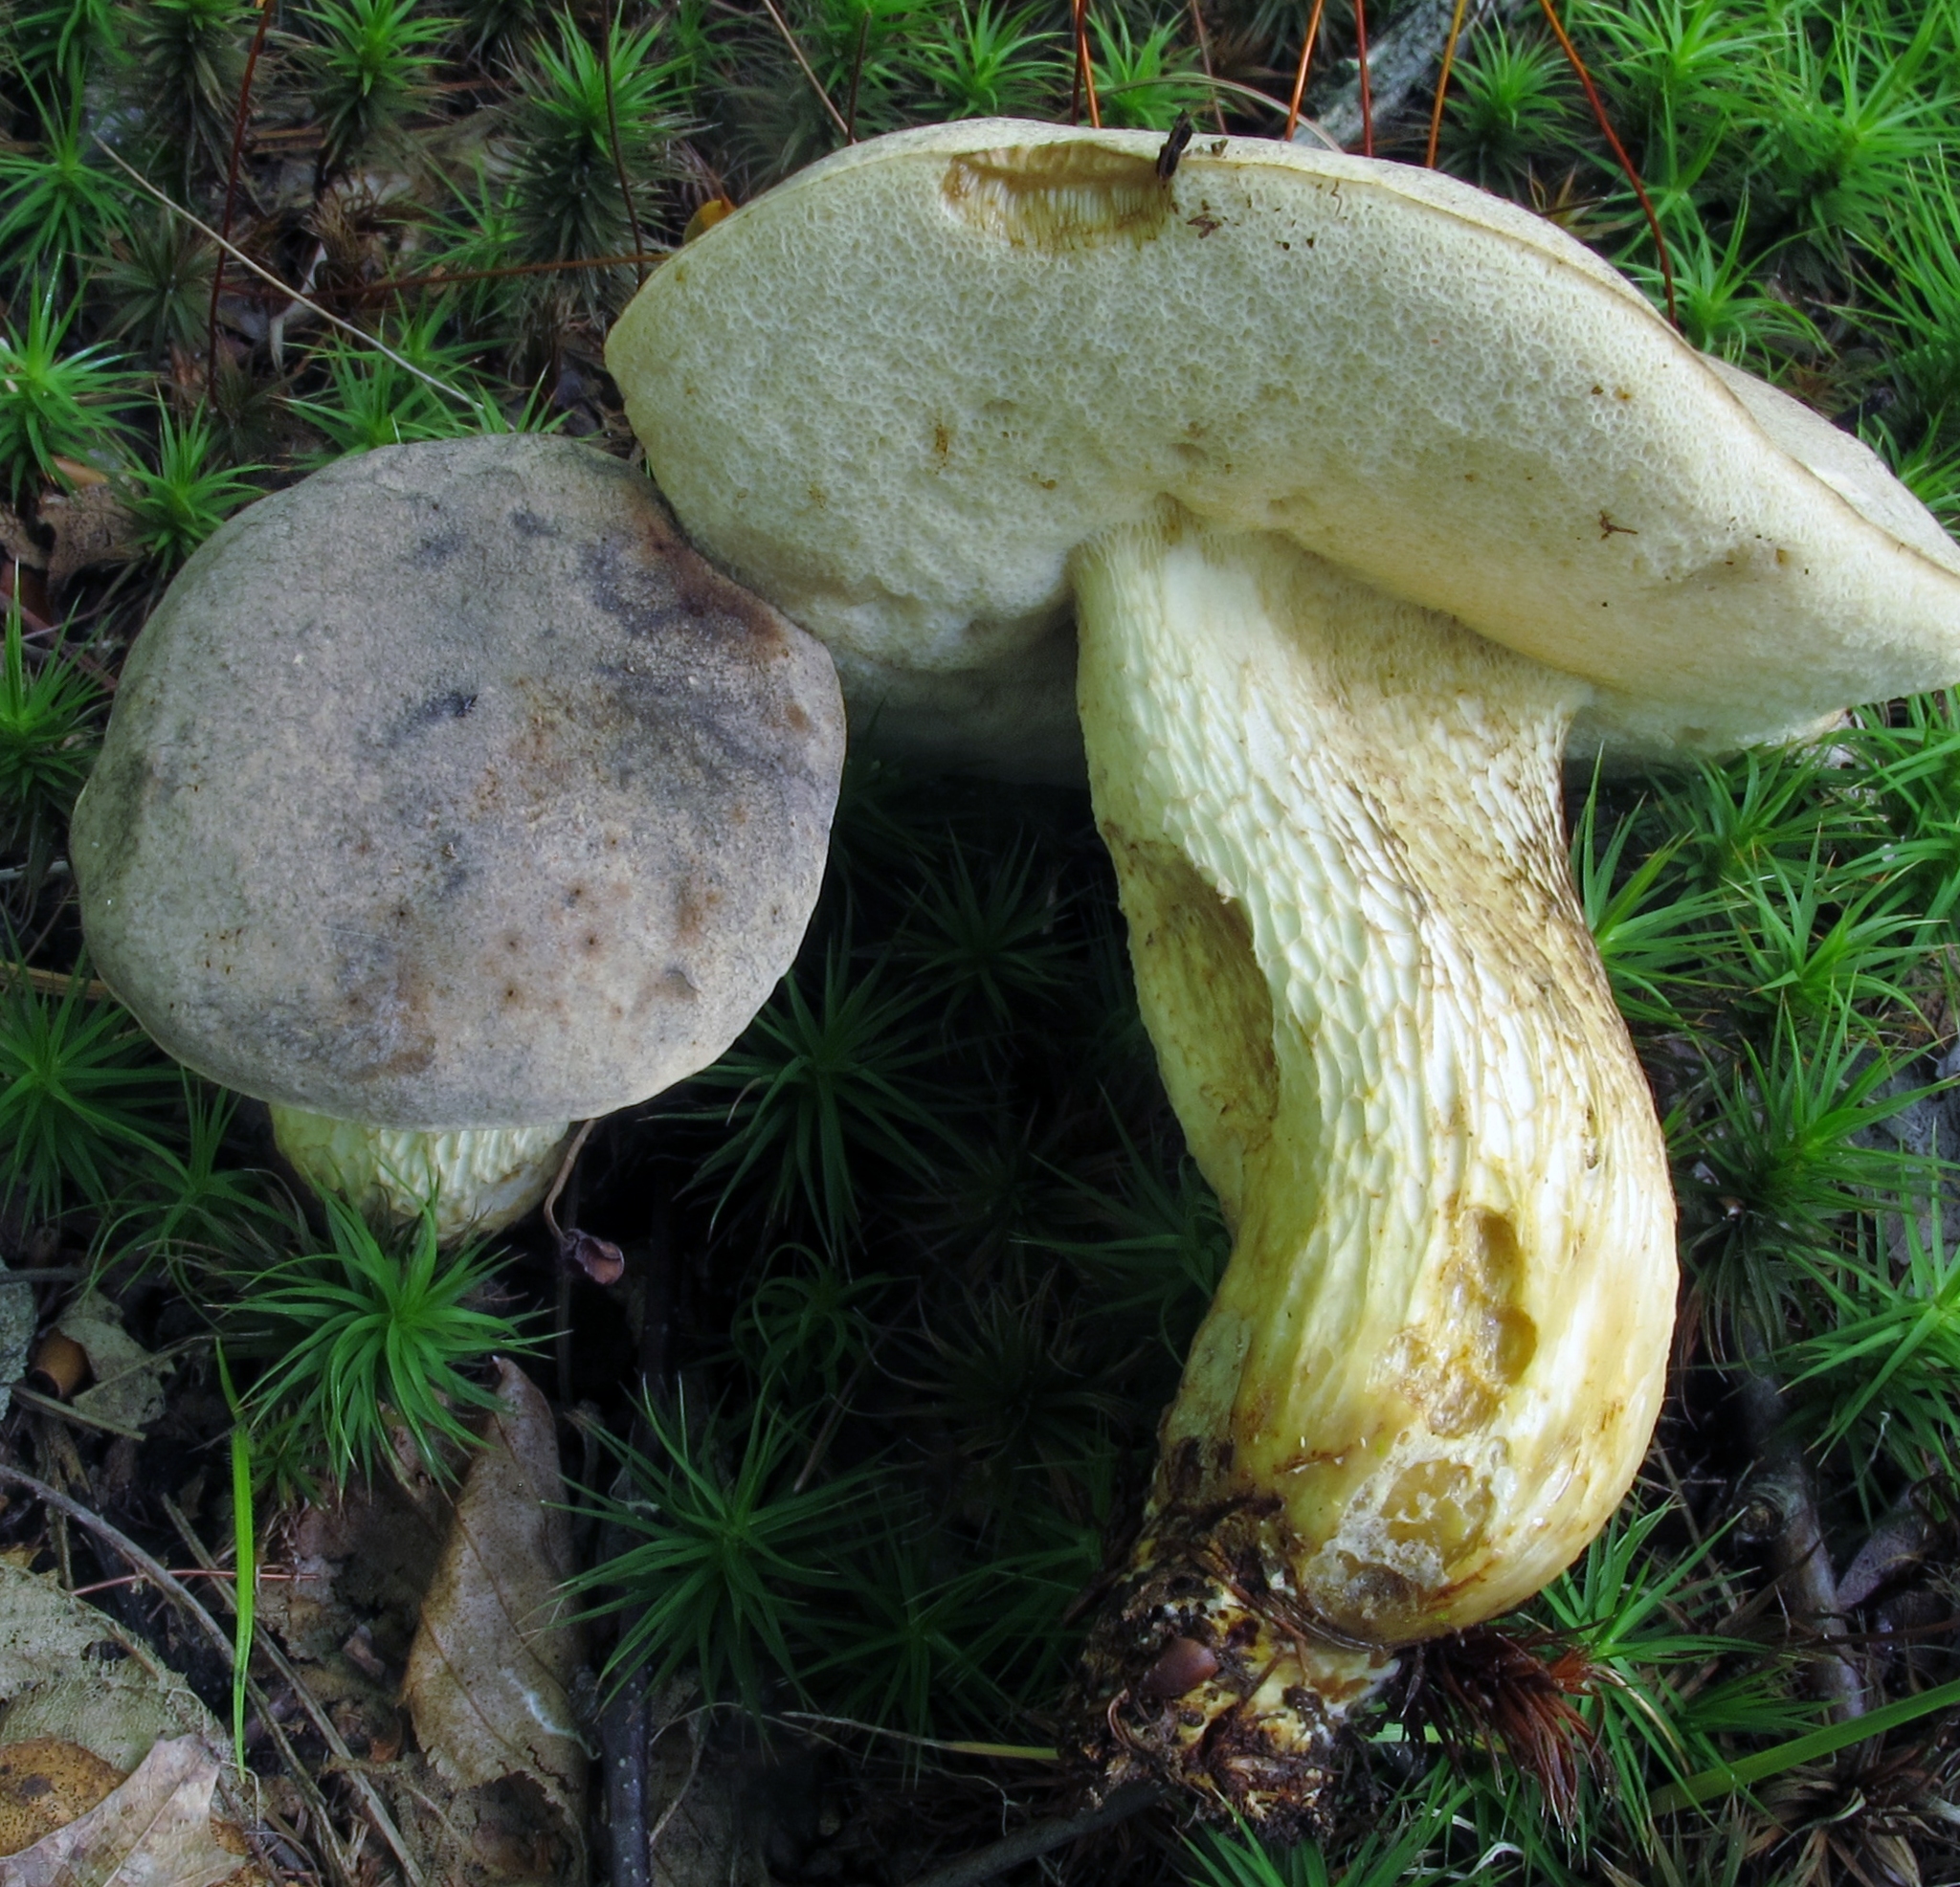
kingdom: Fungi
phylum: Basidiomycota
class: Agaricomycetes
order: Boletales
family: Boletaceae
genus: Retiboletus
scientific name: Retiboletus ornatipes
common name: Ornate-stalked bolete
